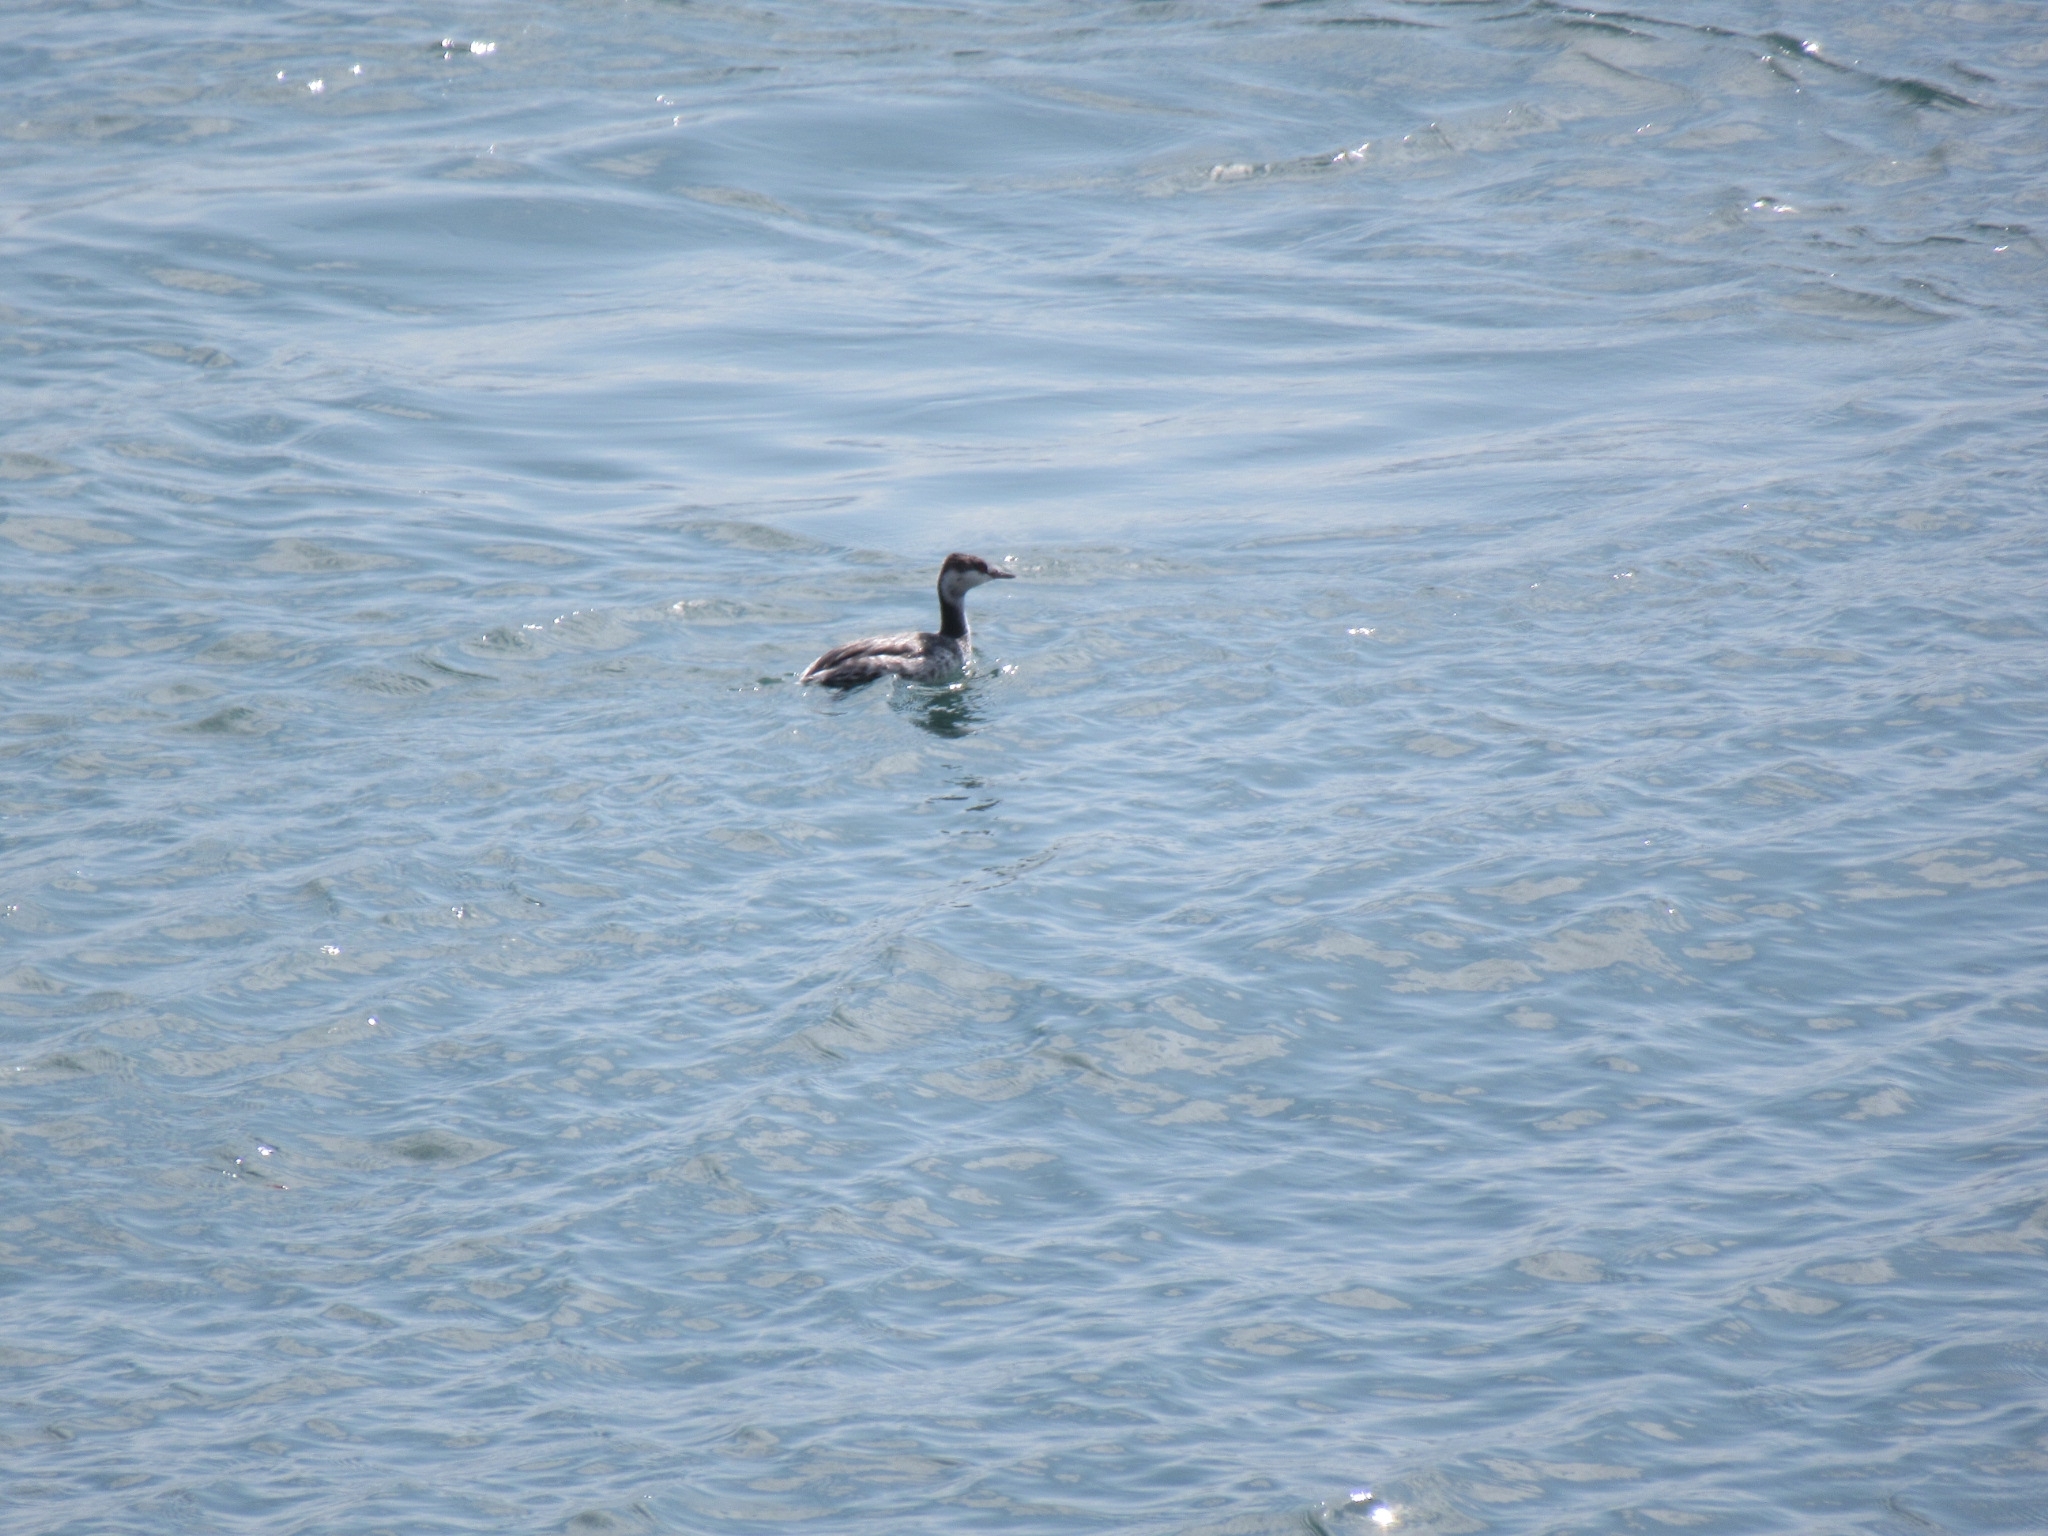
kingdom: Animalia
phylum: Chordata
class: Aves
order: Podicipediformes
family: Podicipedidae
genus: Podiceps
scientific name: Podiceps auritus
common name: Horned grebe
